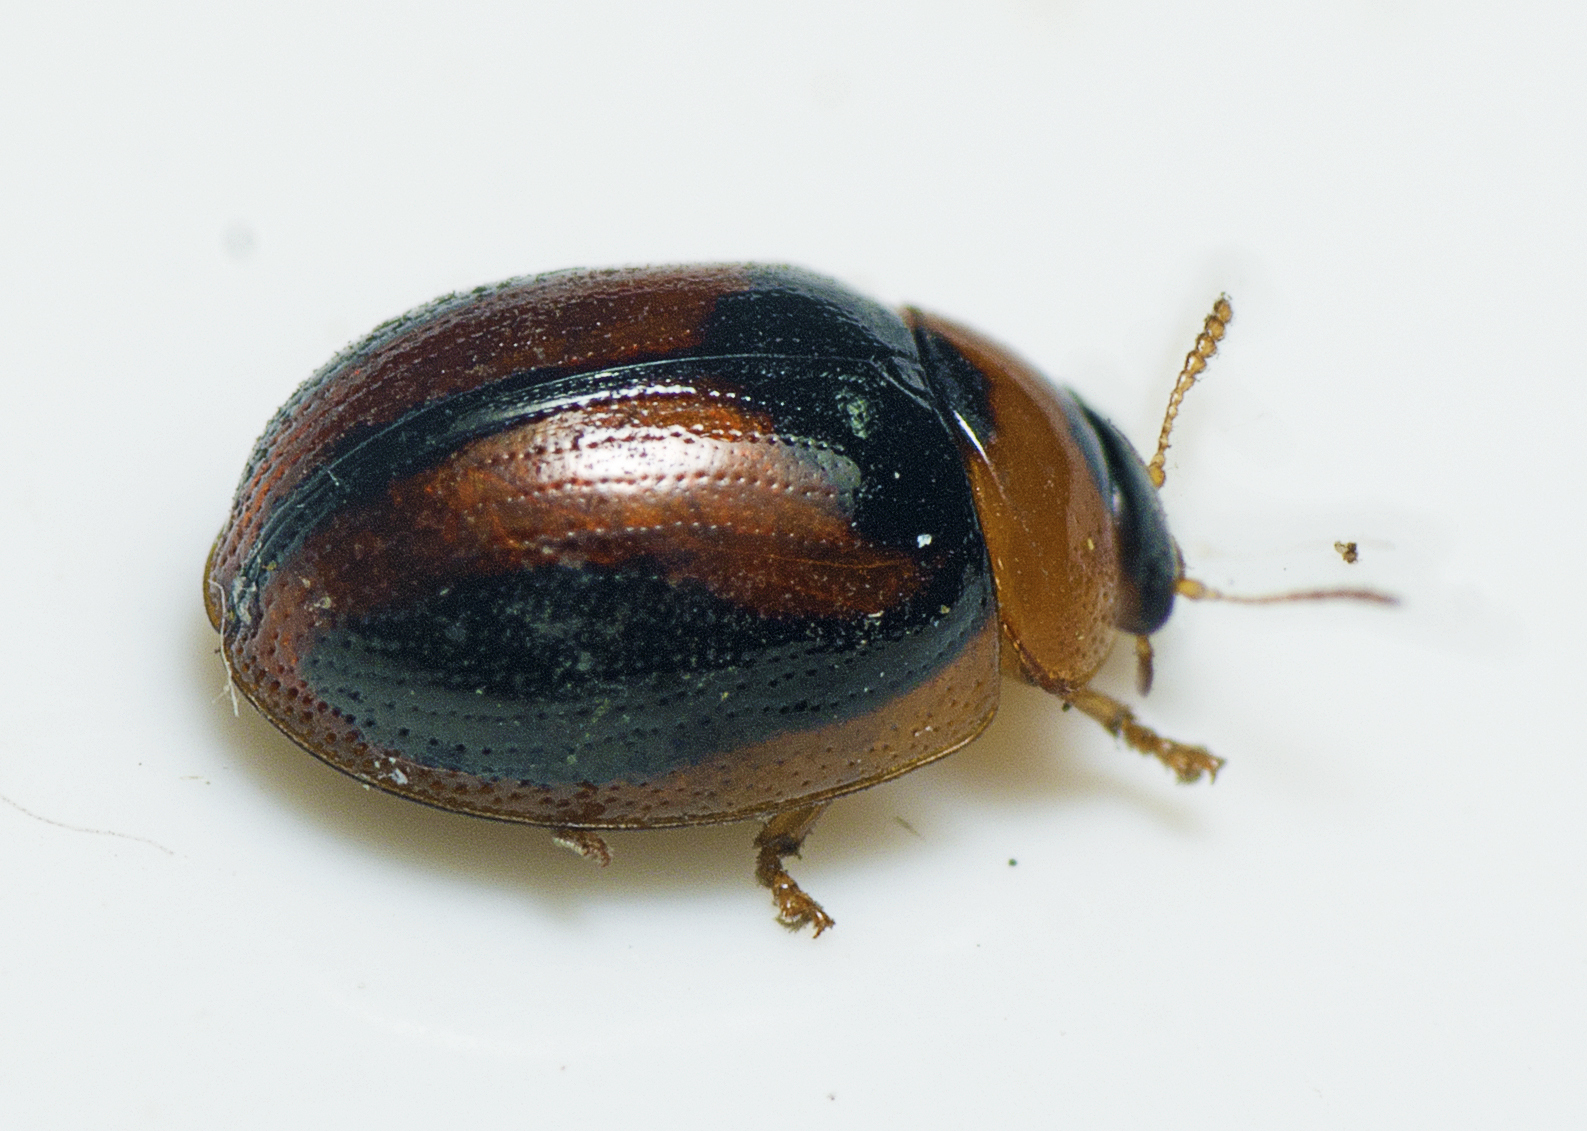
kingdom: Animalia
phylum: Arthropoda
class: Insecta
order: Coleoptera
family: Chrysomelidae
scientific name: Chrysomelidae
